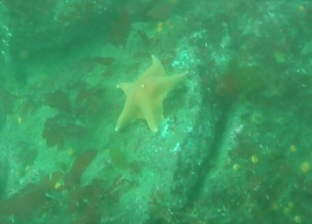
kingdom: Animalia
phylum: Echinodermata
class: Asteroidea
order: Valvatida
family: Asterinidae
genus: Patiria
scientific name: Patiria miniata
